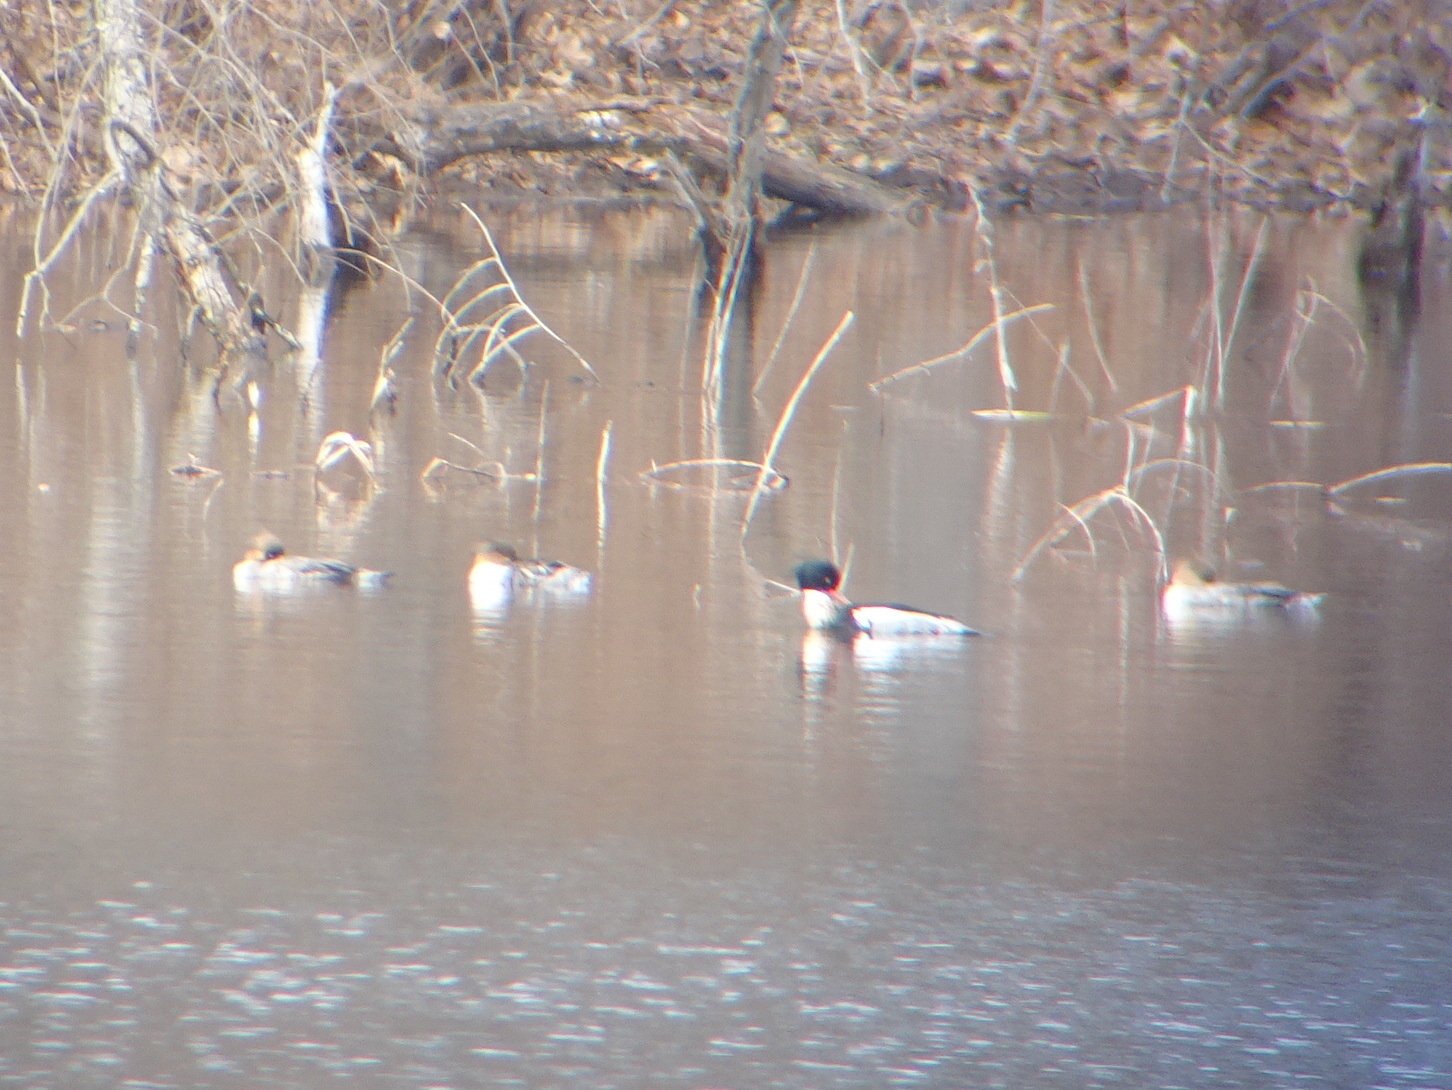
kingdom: Animalia
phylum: Chordata
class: Aves
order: Anseriformes
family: Anatidae
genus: Mergus
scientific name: Mergus serrator
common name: Red-breasted merganser
